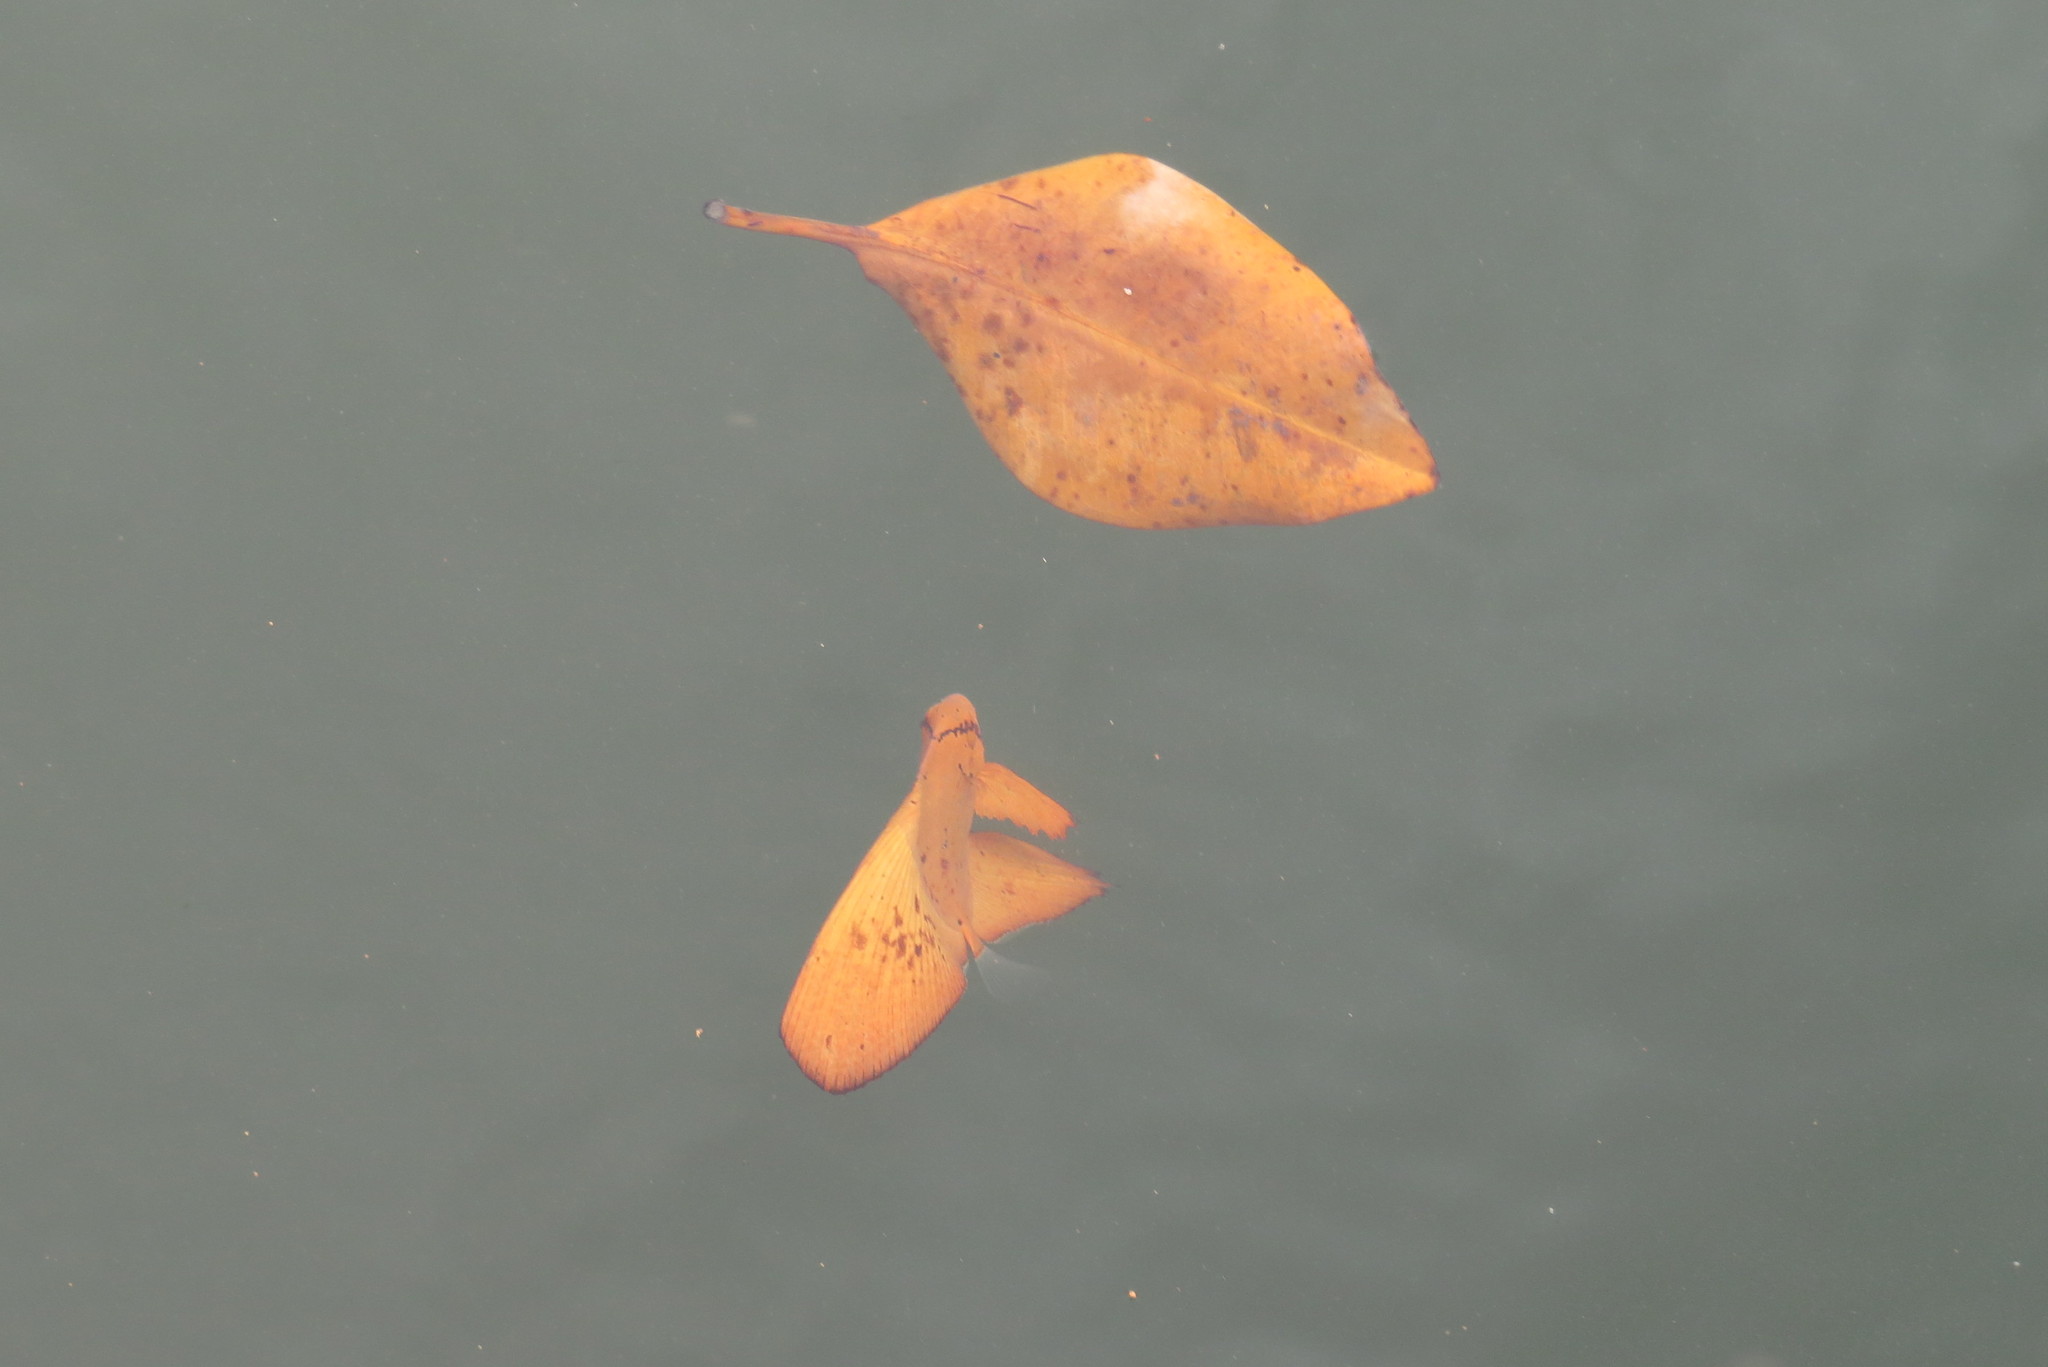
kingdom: Animalia
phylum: Chordata
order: Perciformes
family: Ephippidae
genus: Platax
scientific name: Platax orbicularis
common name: Batfish
